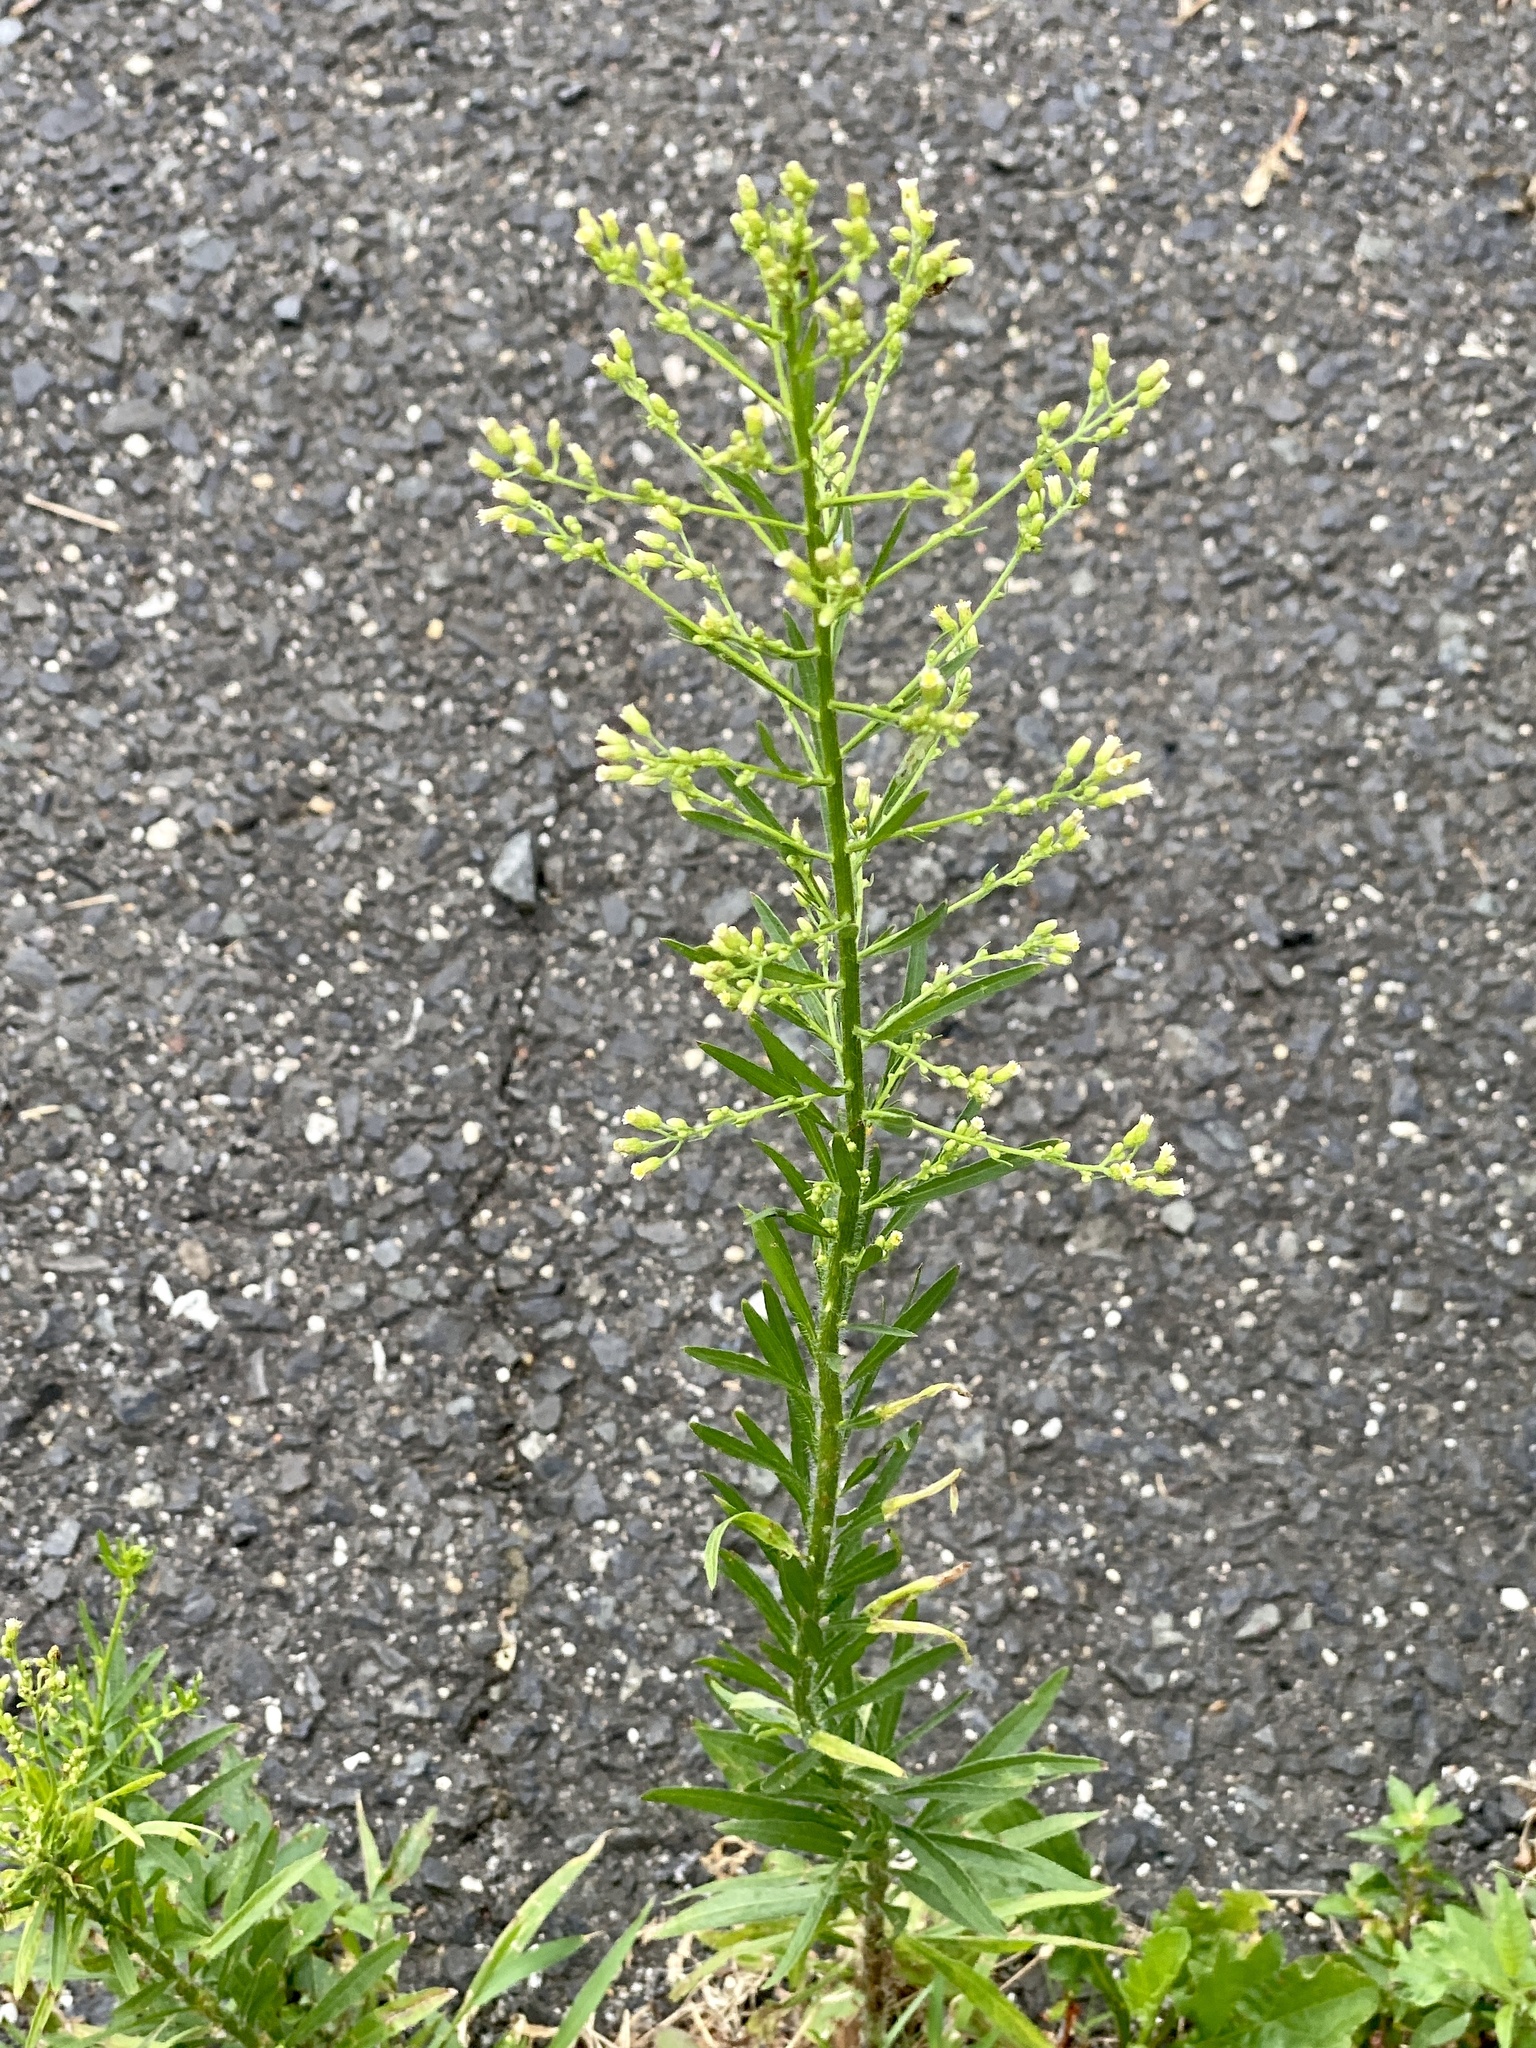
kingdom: Plantae
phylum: Tracheophyta
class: Magnoliopsida
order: Asterales
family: Asteraceae
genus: Erigeron
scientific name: Erigeron canadensis
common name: Canadian fleabane
